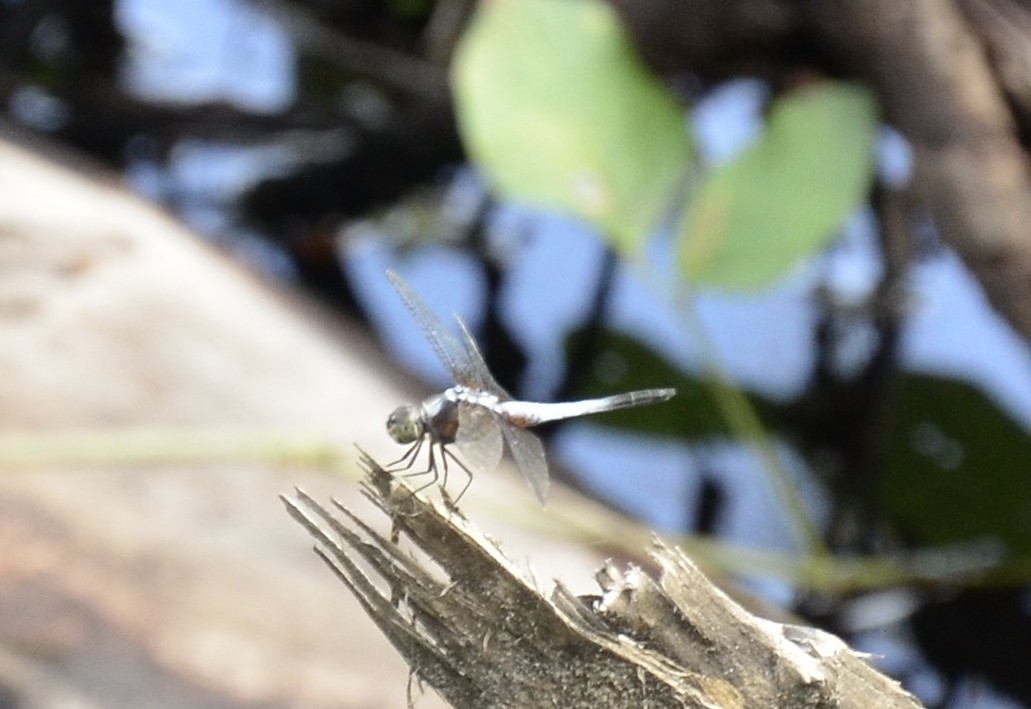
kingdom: Animalia
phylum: Arthropoda
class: Insecta
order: Odonata
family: Libellulidae
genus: Brachydiplax
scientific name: Brachydiplax chalybea
